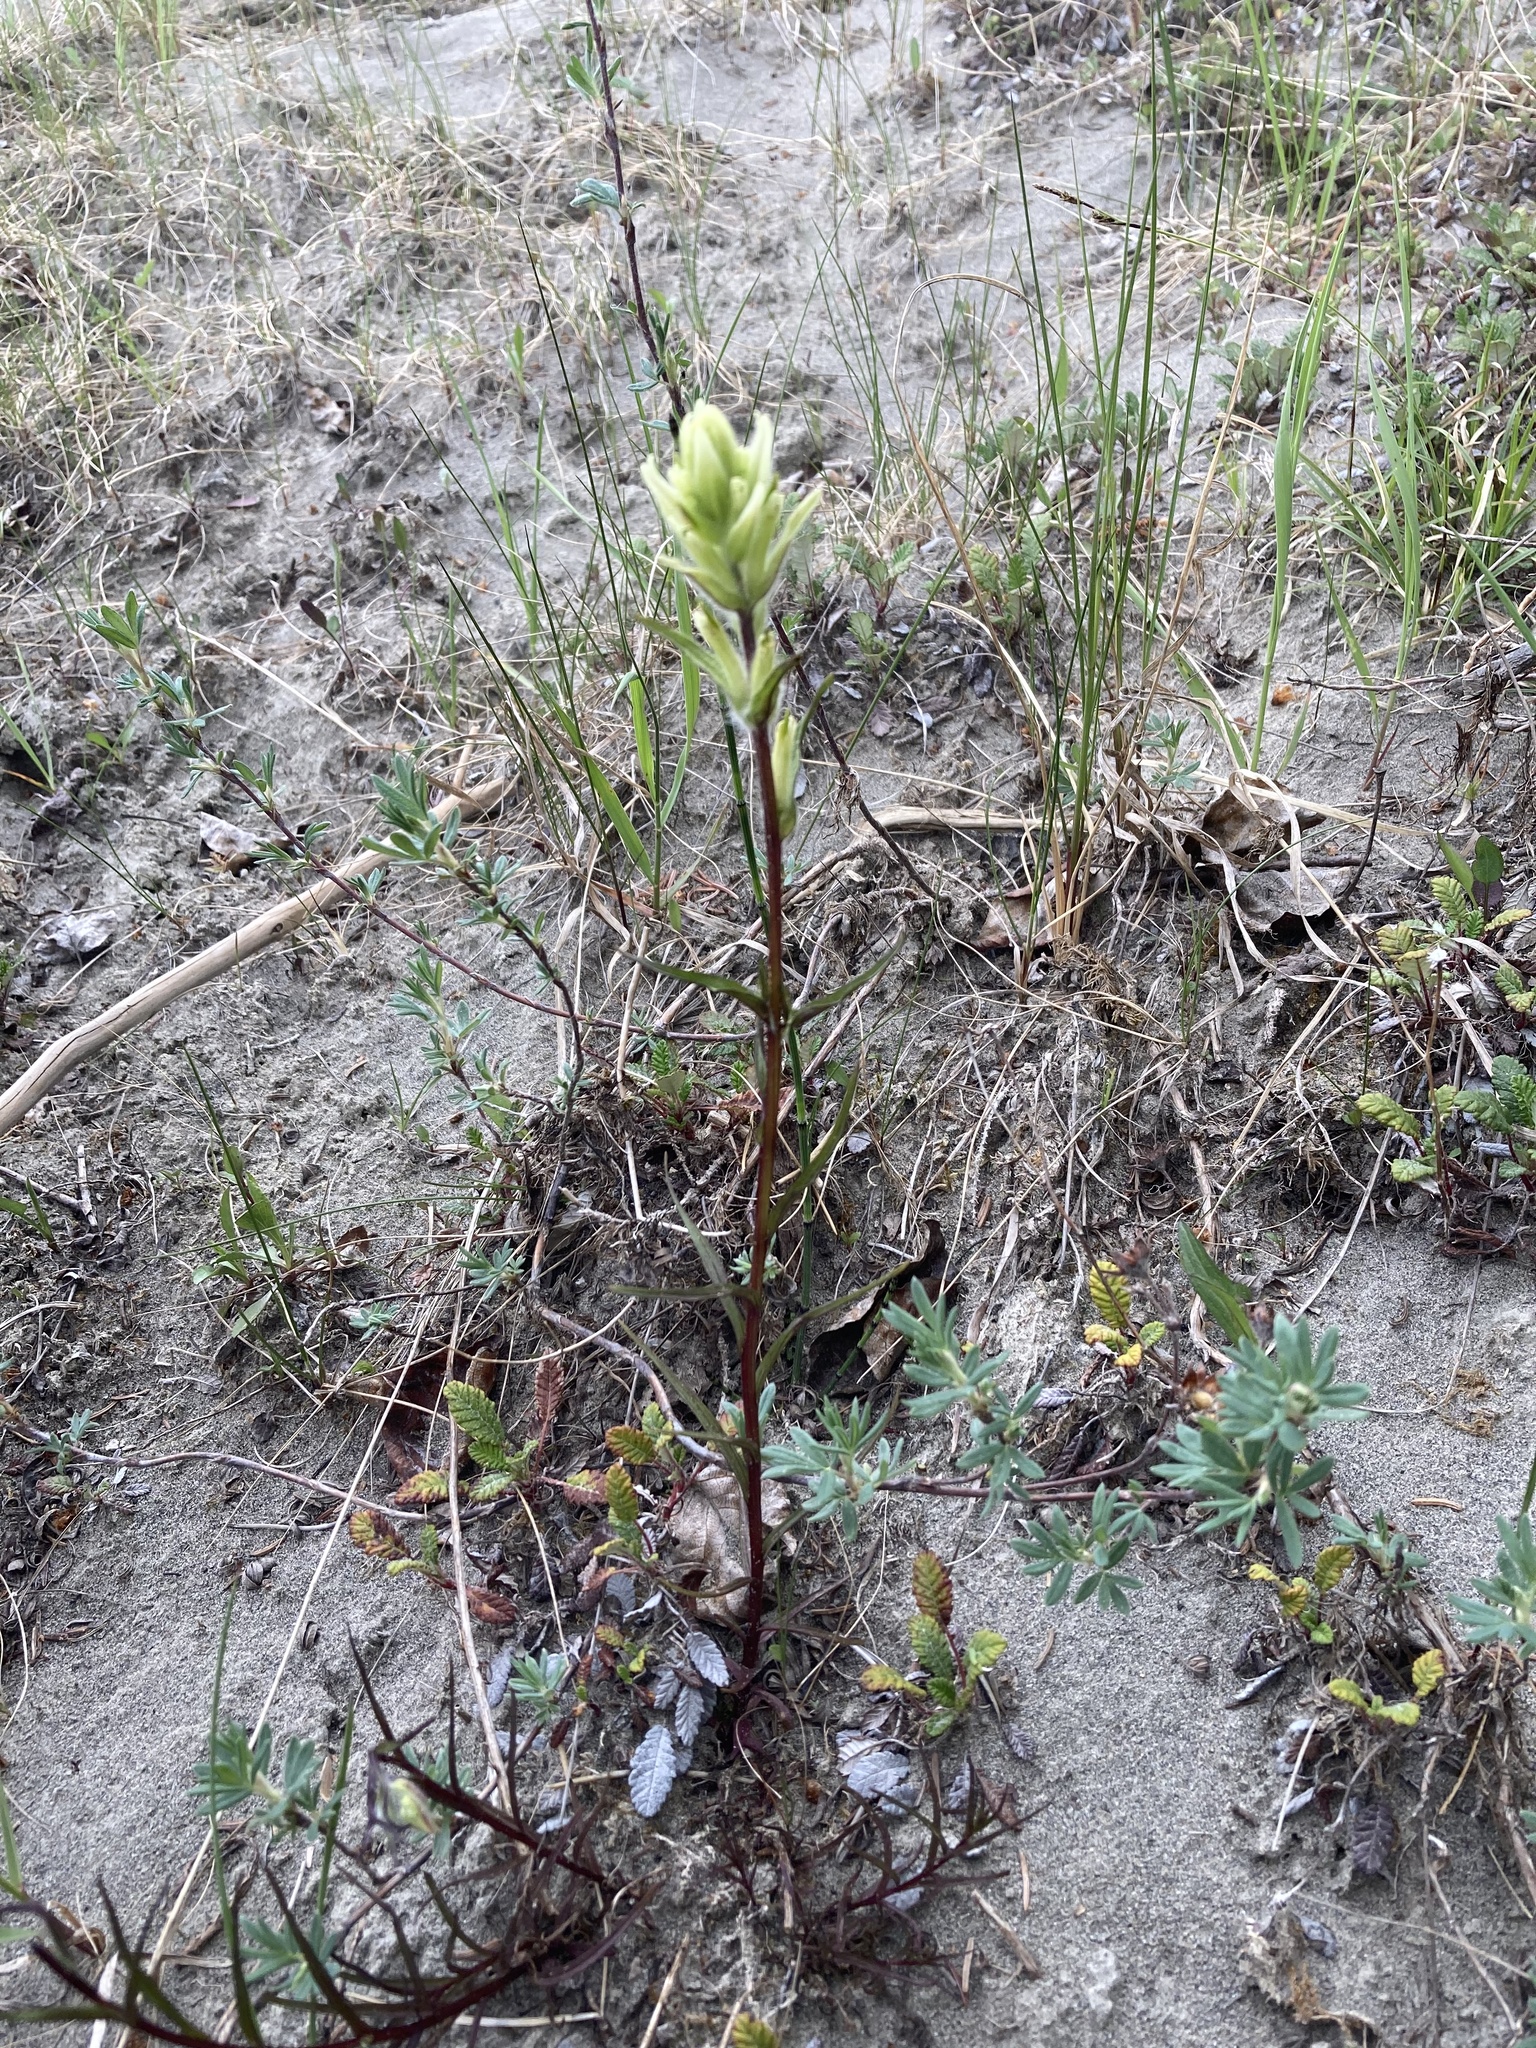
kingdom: Plantae
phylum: Tracheophyta
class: Magnoliopsida
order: Lamiales
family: Orobanchaceae
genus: Castilleja
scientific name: Castilleja septentrionalis
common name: Northeastern paintbrush
